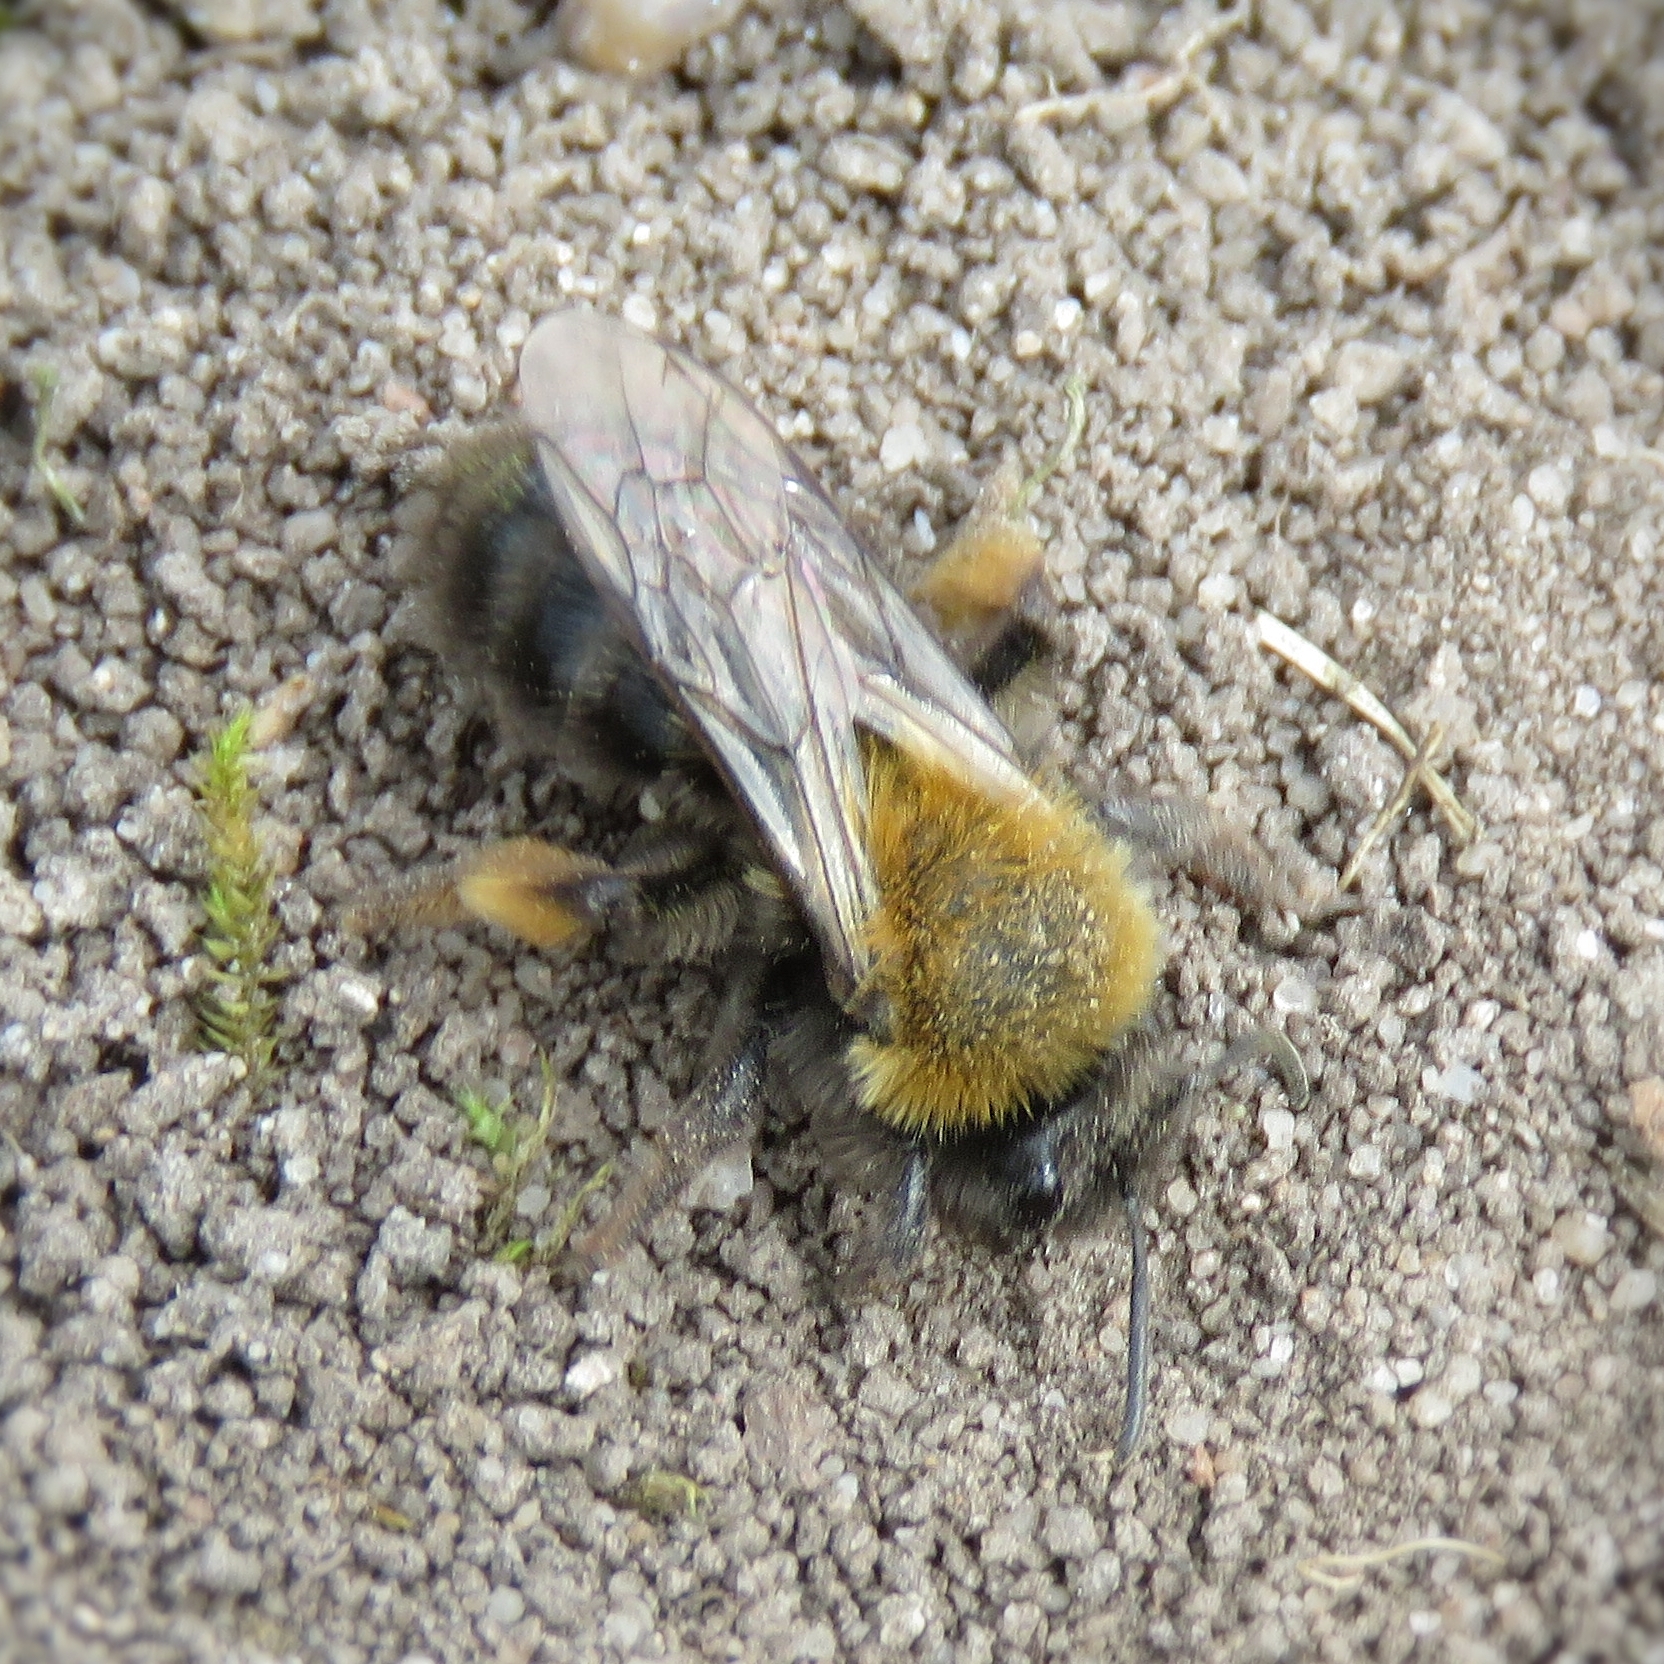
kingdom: Animalia
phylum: Arthropoda
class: Insecta
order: Hymenoptera
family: Andrenidae
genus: Andrena
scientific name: Andrena clarkella
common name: Clarke's mining bee
